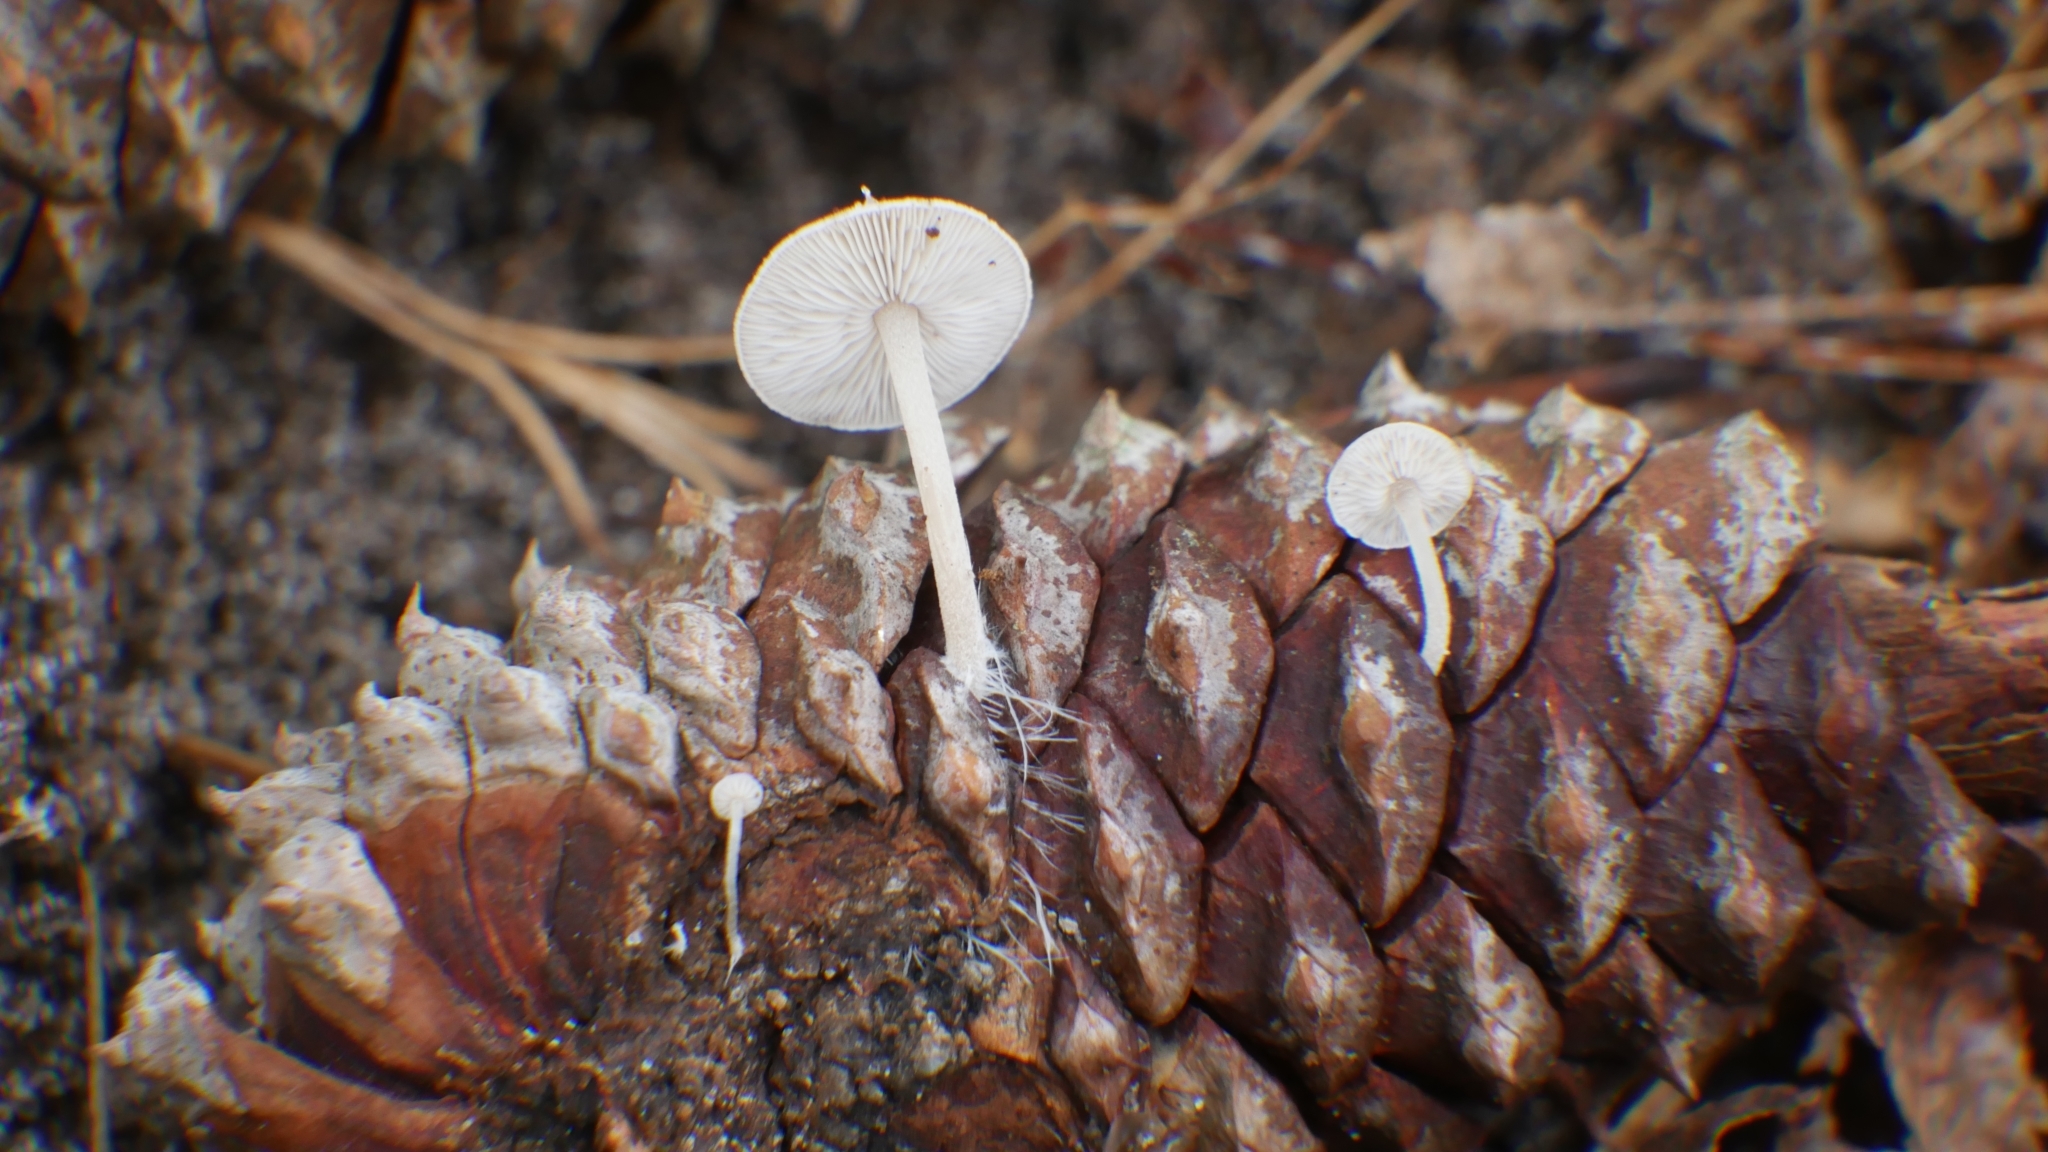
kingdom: Fungi
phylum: Basidiomycota
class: Agaricomycetes
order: Agaricales
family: Marasmiaceae
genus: Baeospora
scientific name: Baeospora myosura
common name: Conifercone cap
